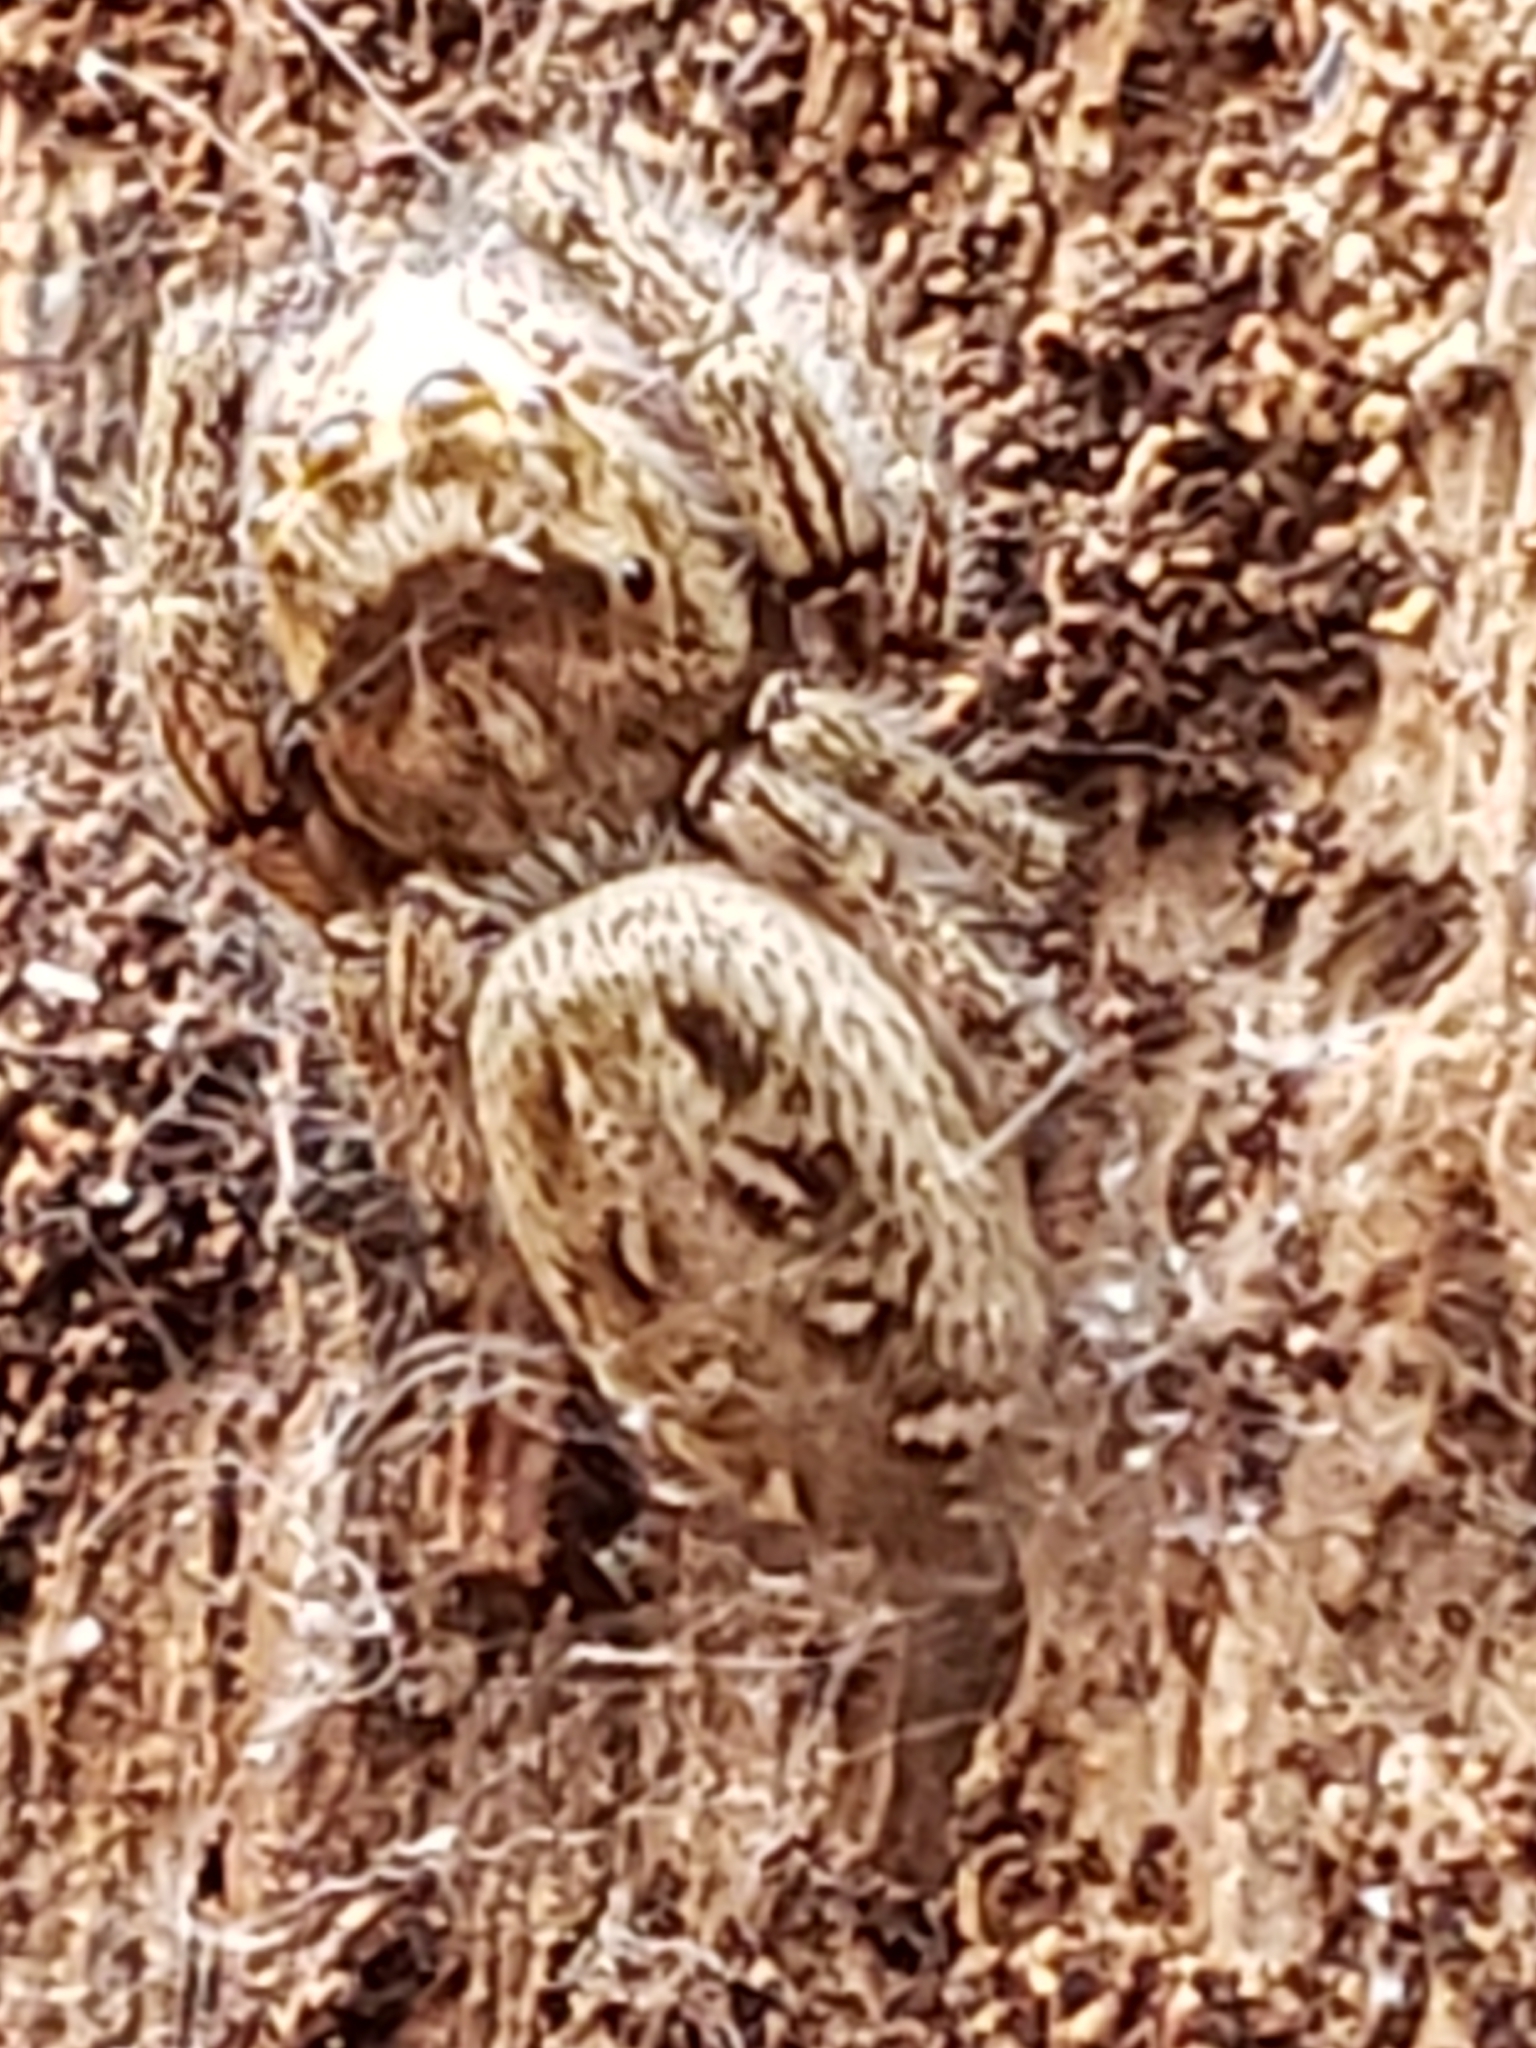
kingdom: Animalia
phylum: Arthropoda
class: Arachnida
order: Araneae
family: Salticidae
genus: Eris
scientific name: Eris militaris
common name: Bronze jumper
